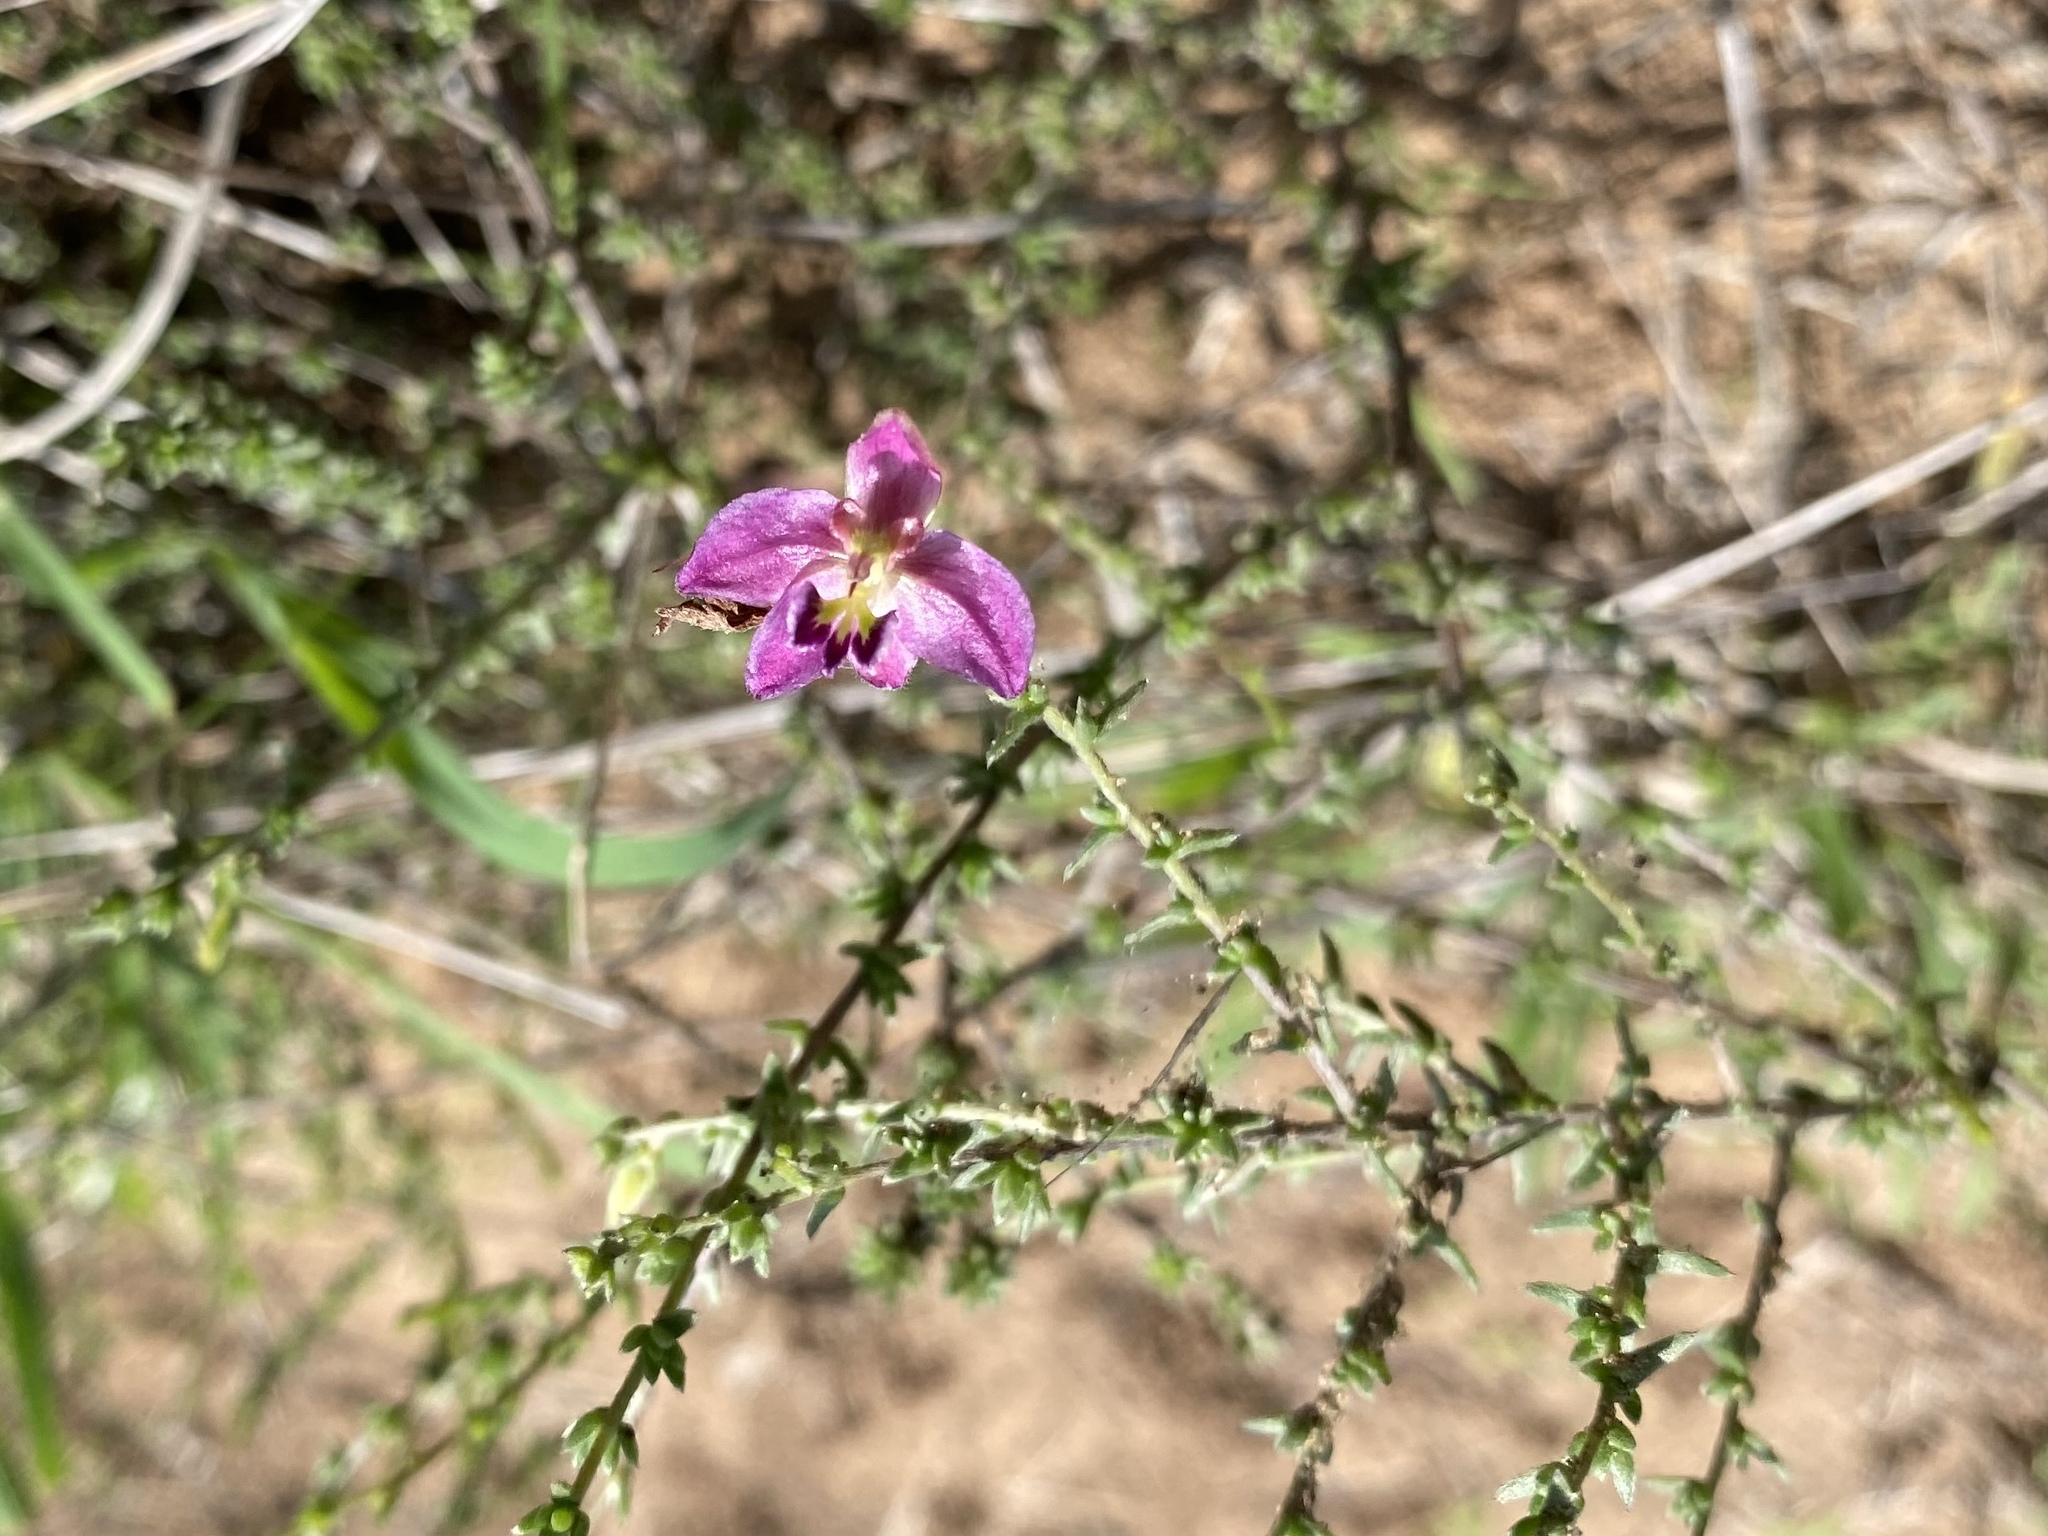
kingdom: Plantae
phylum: Tracheophyta
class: Magnoliopsida
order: Zygophyllales
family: Krameriaceae
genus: Krameria
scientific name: Krameria ramosissima
